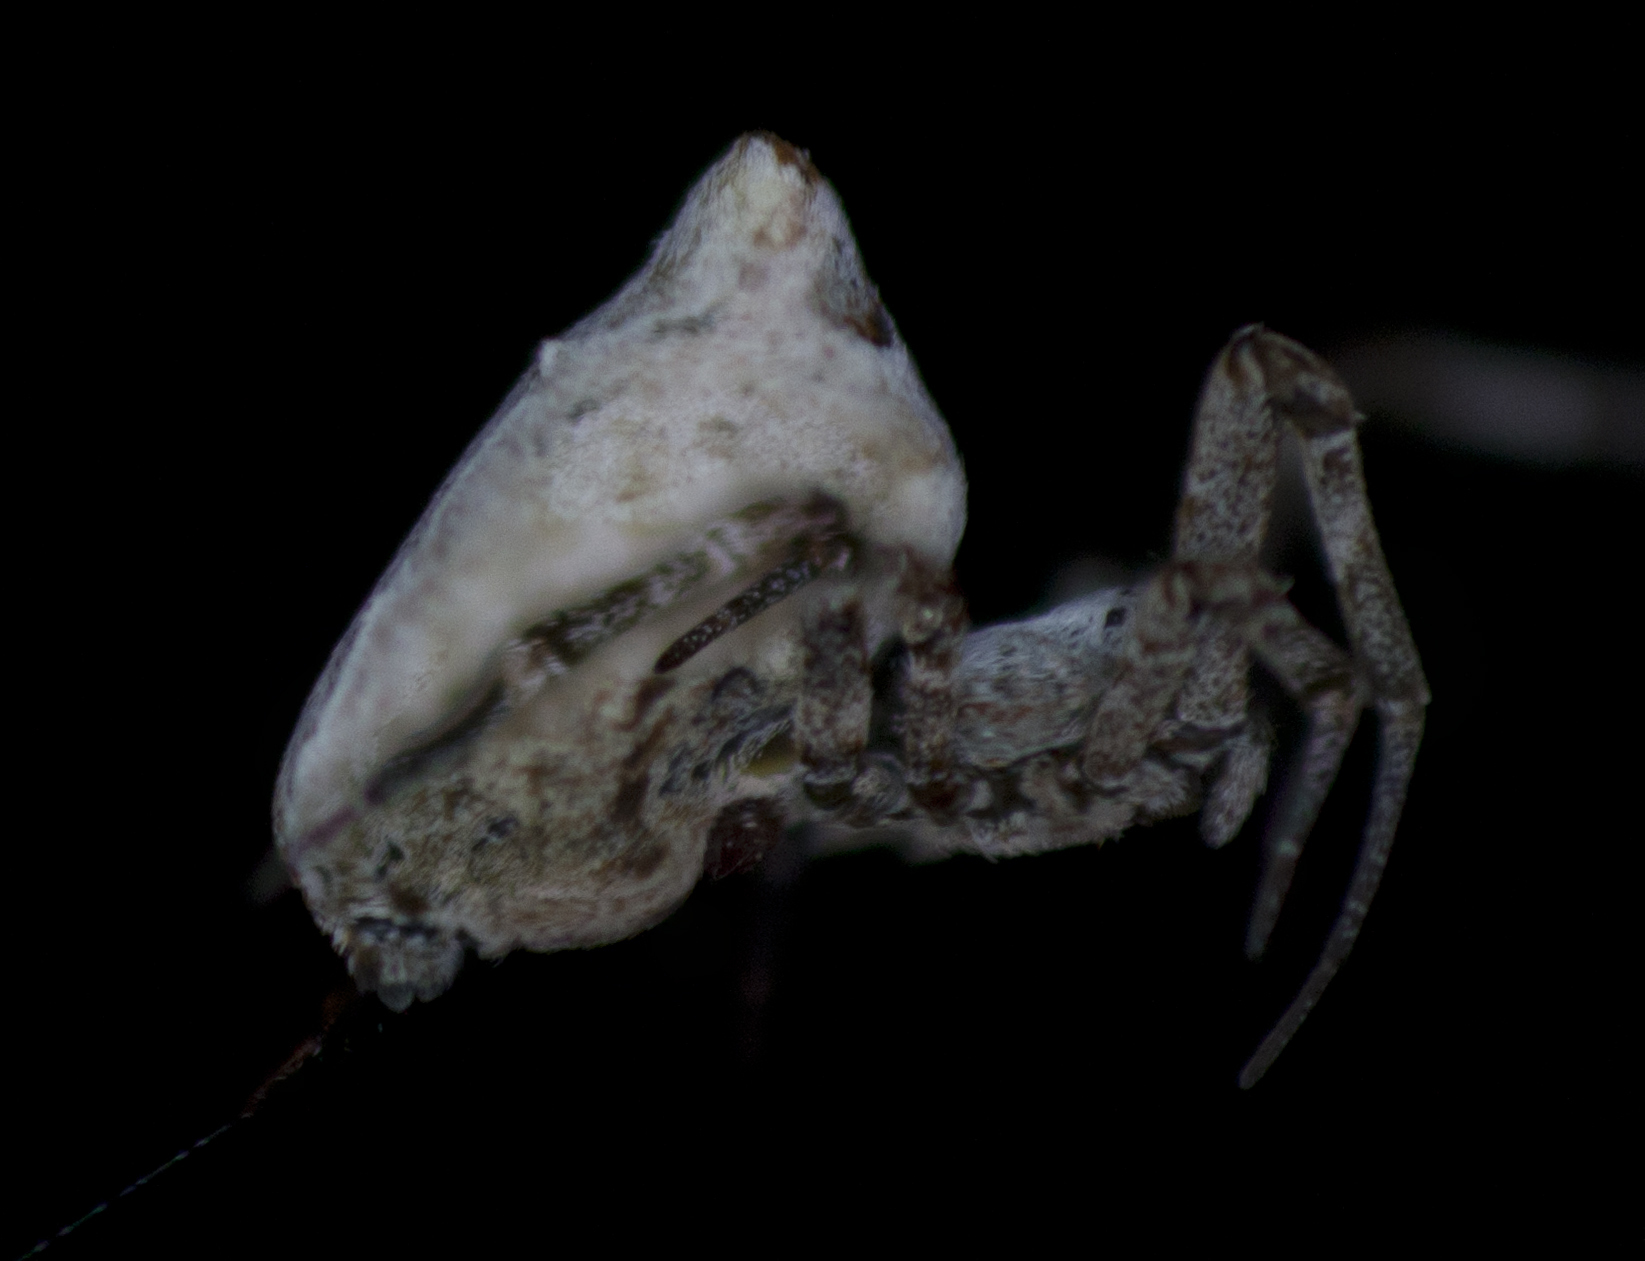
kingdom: Animalia
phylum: Arthropoda
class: Arachnida
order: Araneae
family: Uloboridae
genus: Philoponella
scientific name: Philoponella congregabilis
